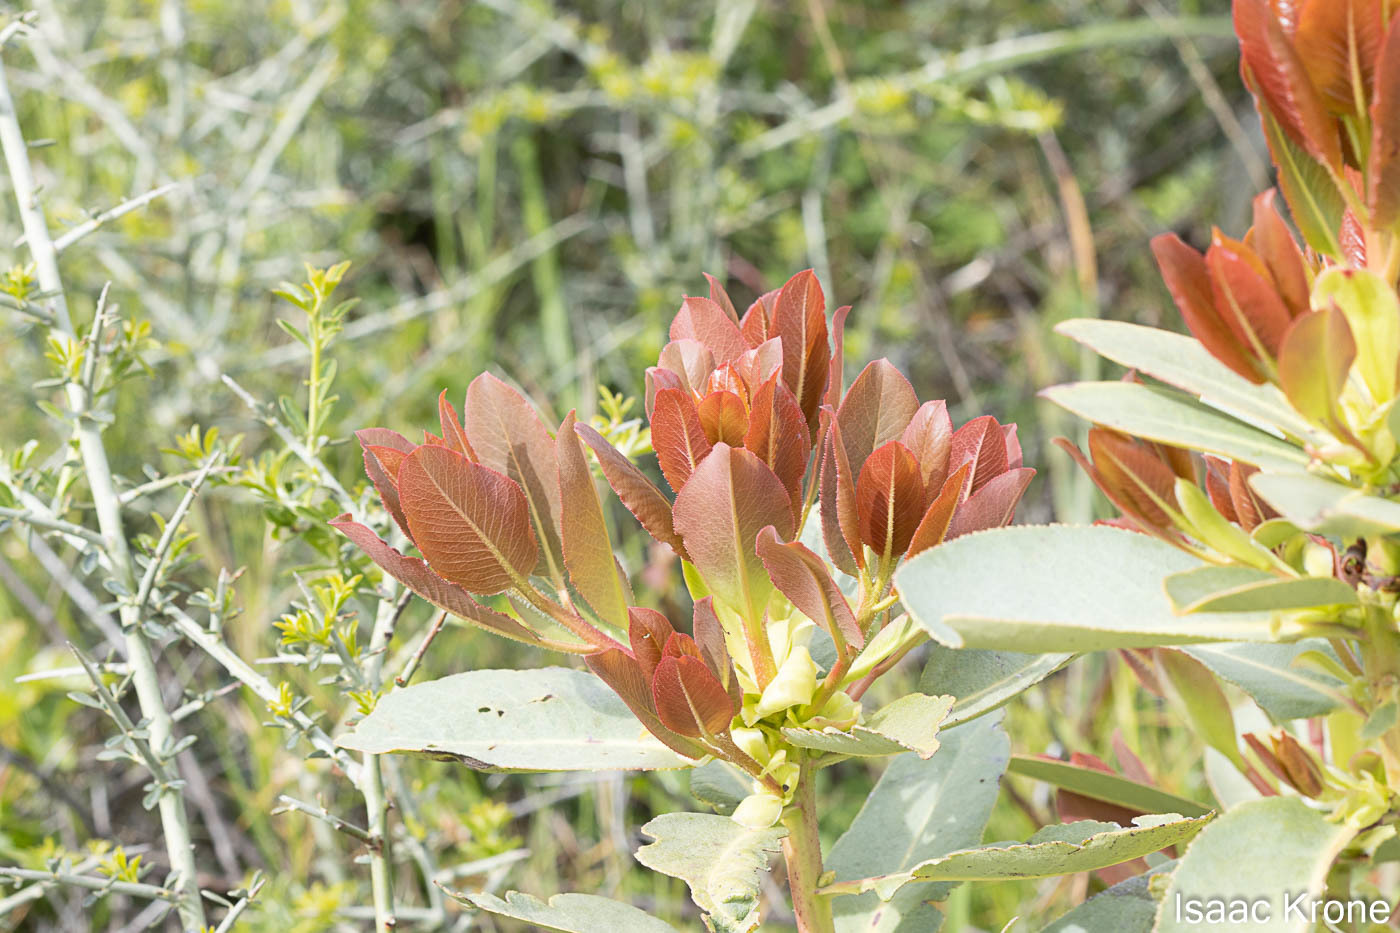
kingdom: Plantae
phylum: Tracheophyta
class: Magnoliopsida
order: Ericales
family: Ericaceae
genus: Arbutus
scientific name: Arbutus menziesii
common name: Pacific madrone
